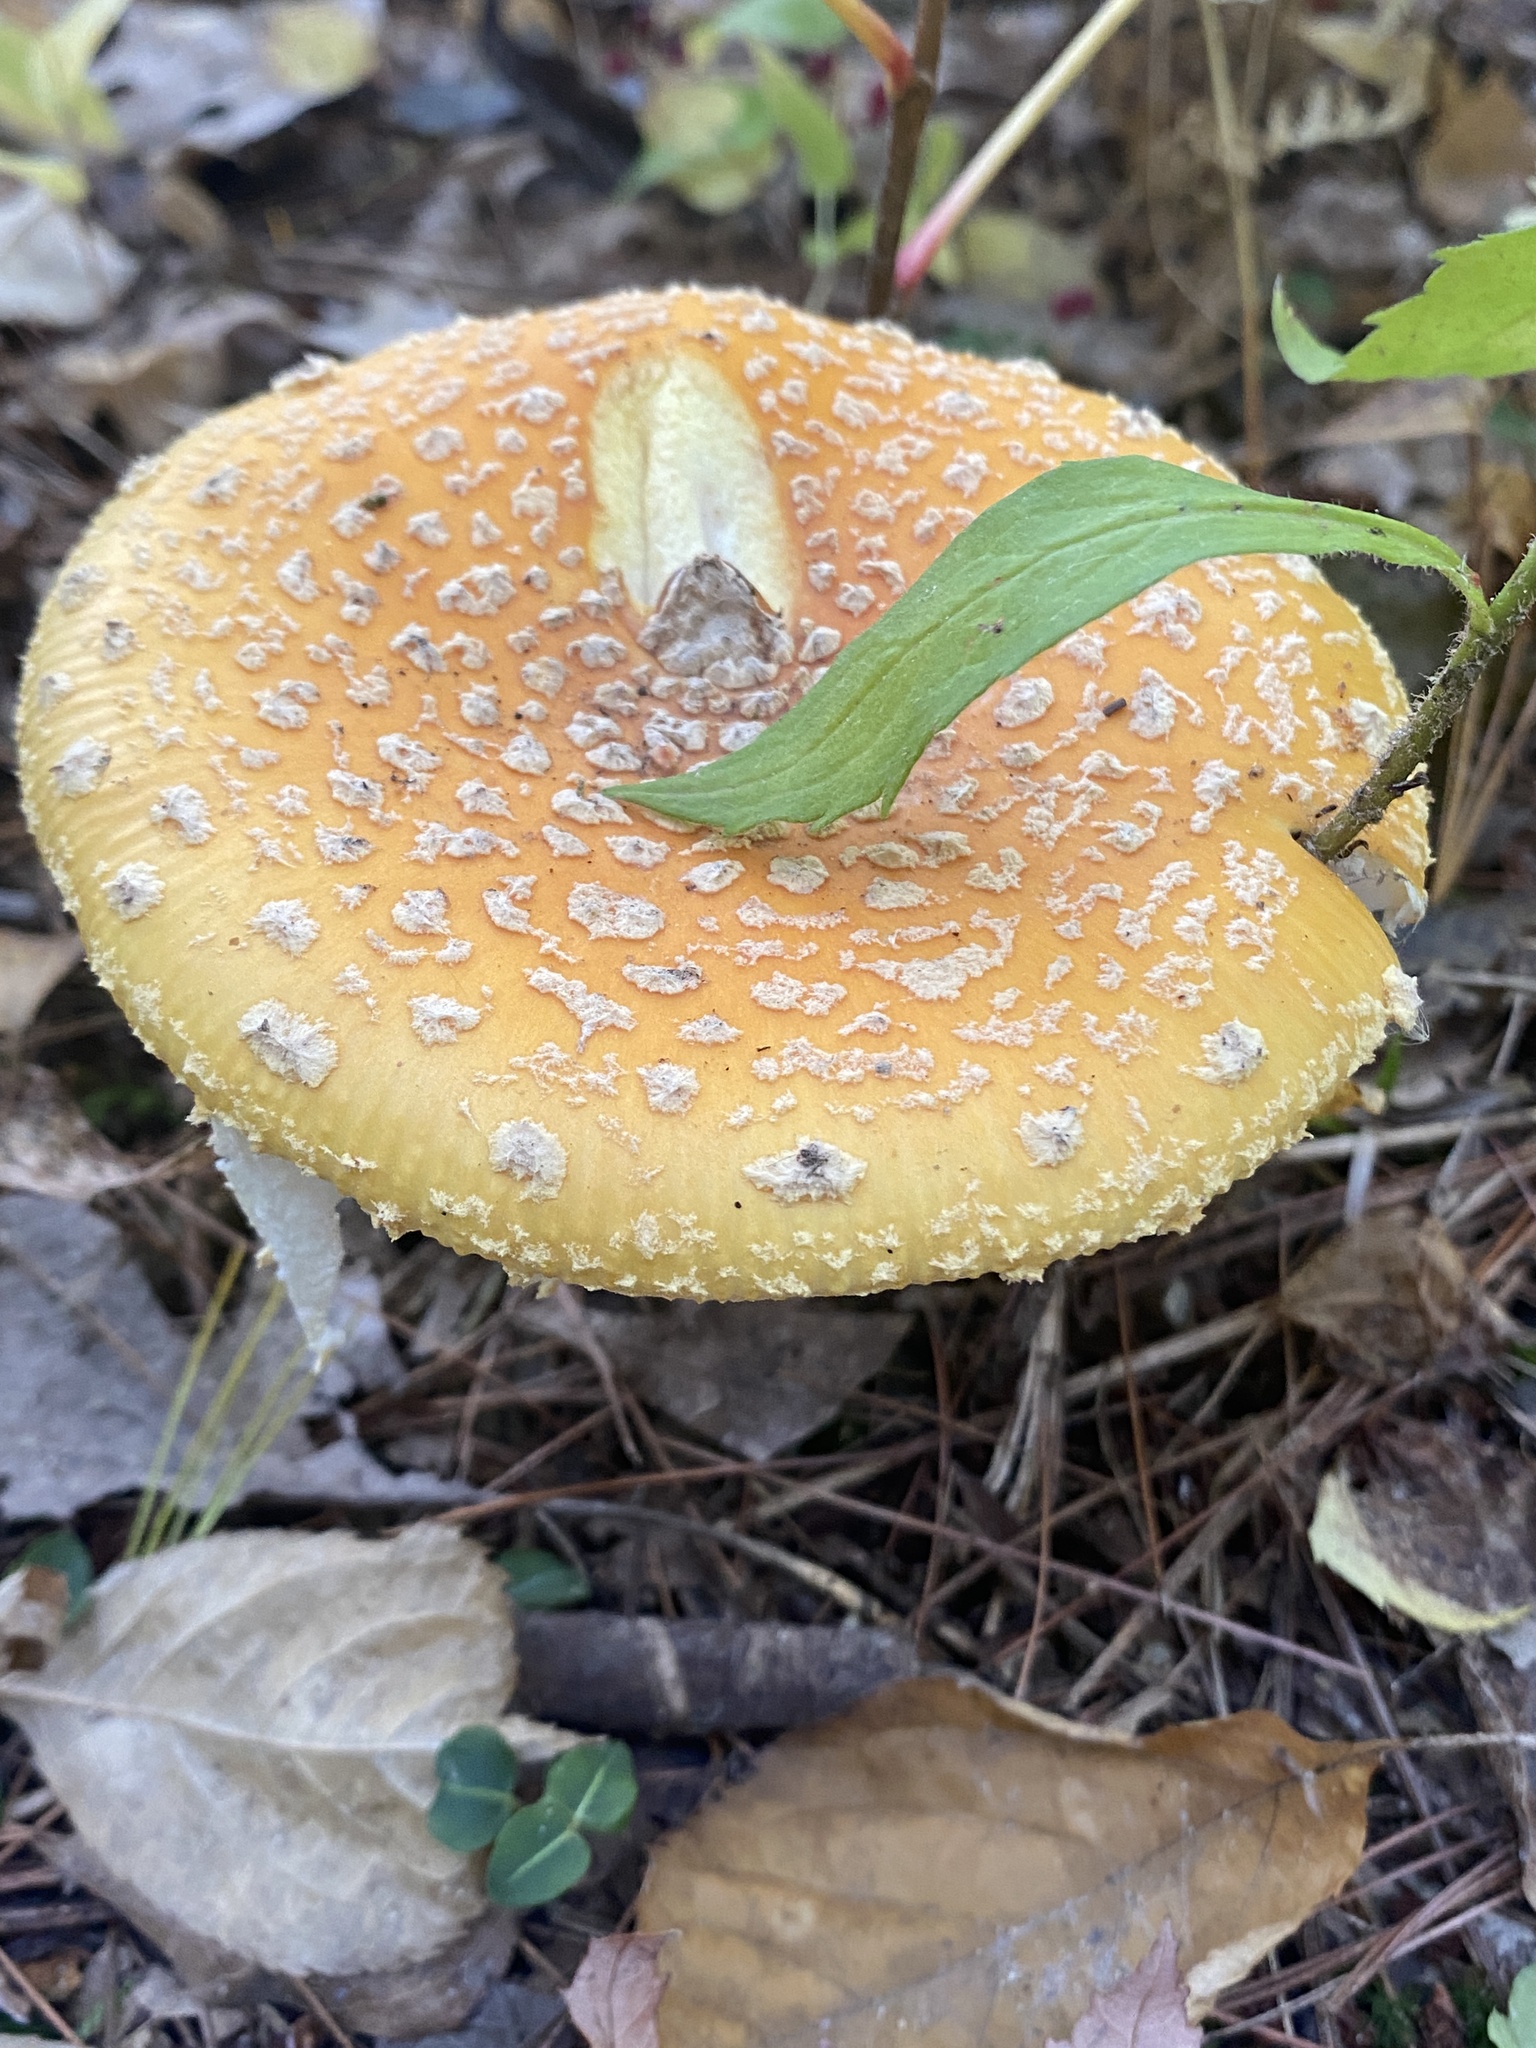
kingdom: Fungi
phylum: Basidiomycota
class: Agaricomycetes
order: Agaricales
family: Amanitaceae
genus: Amanita
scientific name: Amanita muscaria
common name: Fly agaric
